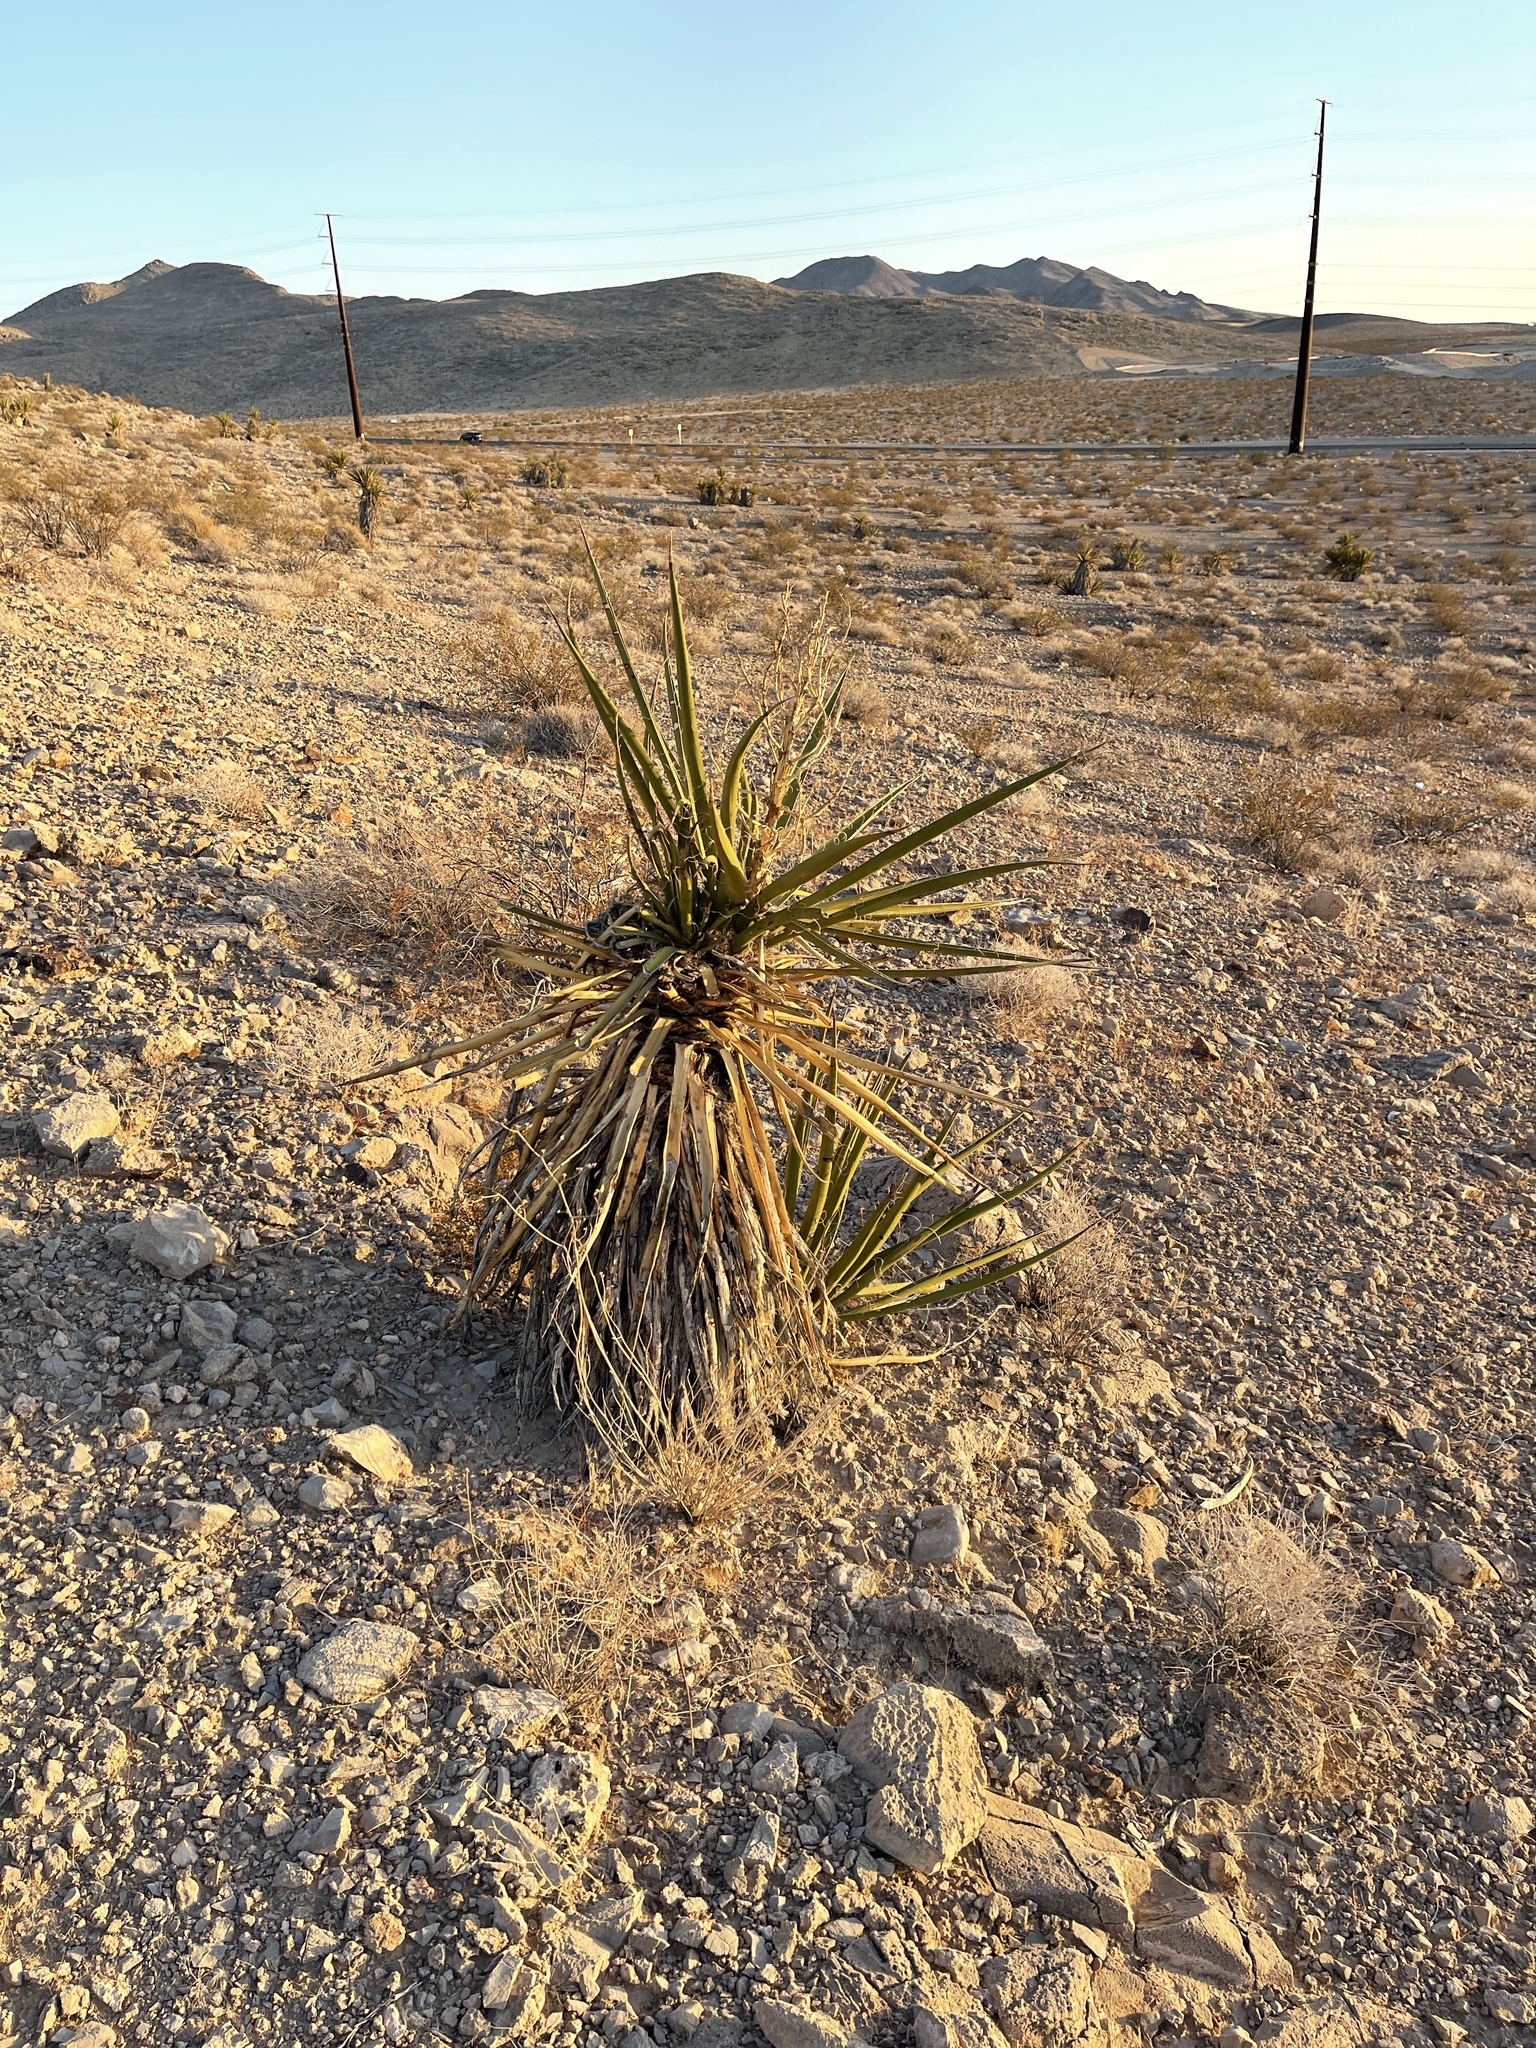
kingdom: Plantae
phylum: Tracheophyta
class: Liliopsida
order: Asparagales
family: Asparagaceae
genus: Yucca
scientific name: Yucca schidigera
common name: Mojave yucca
